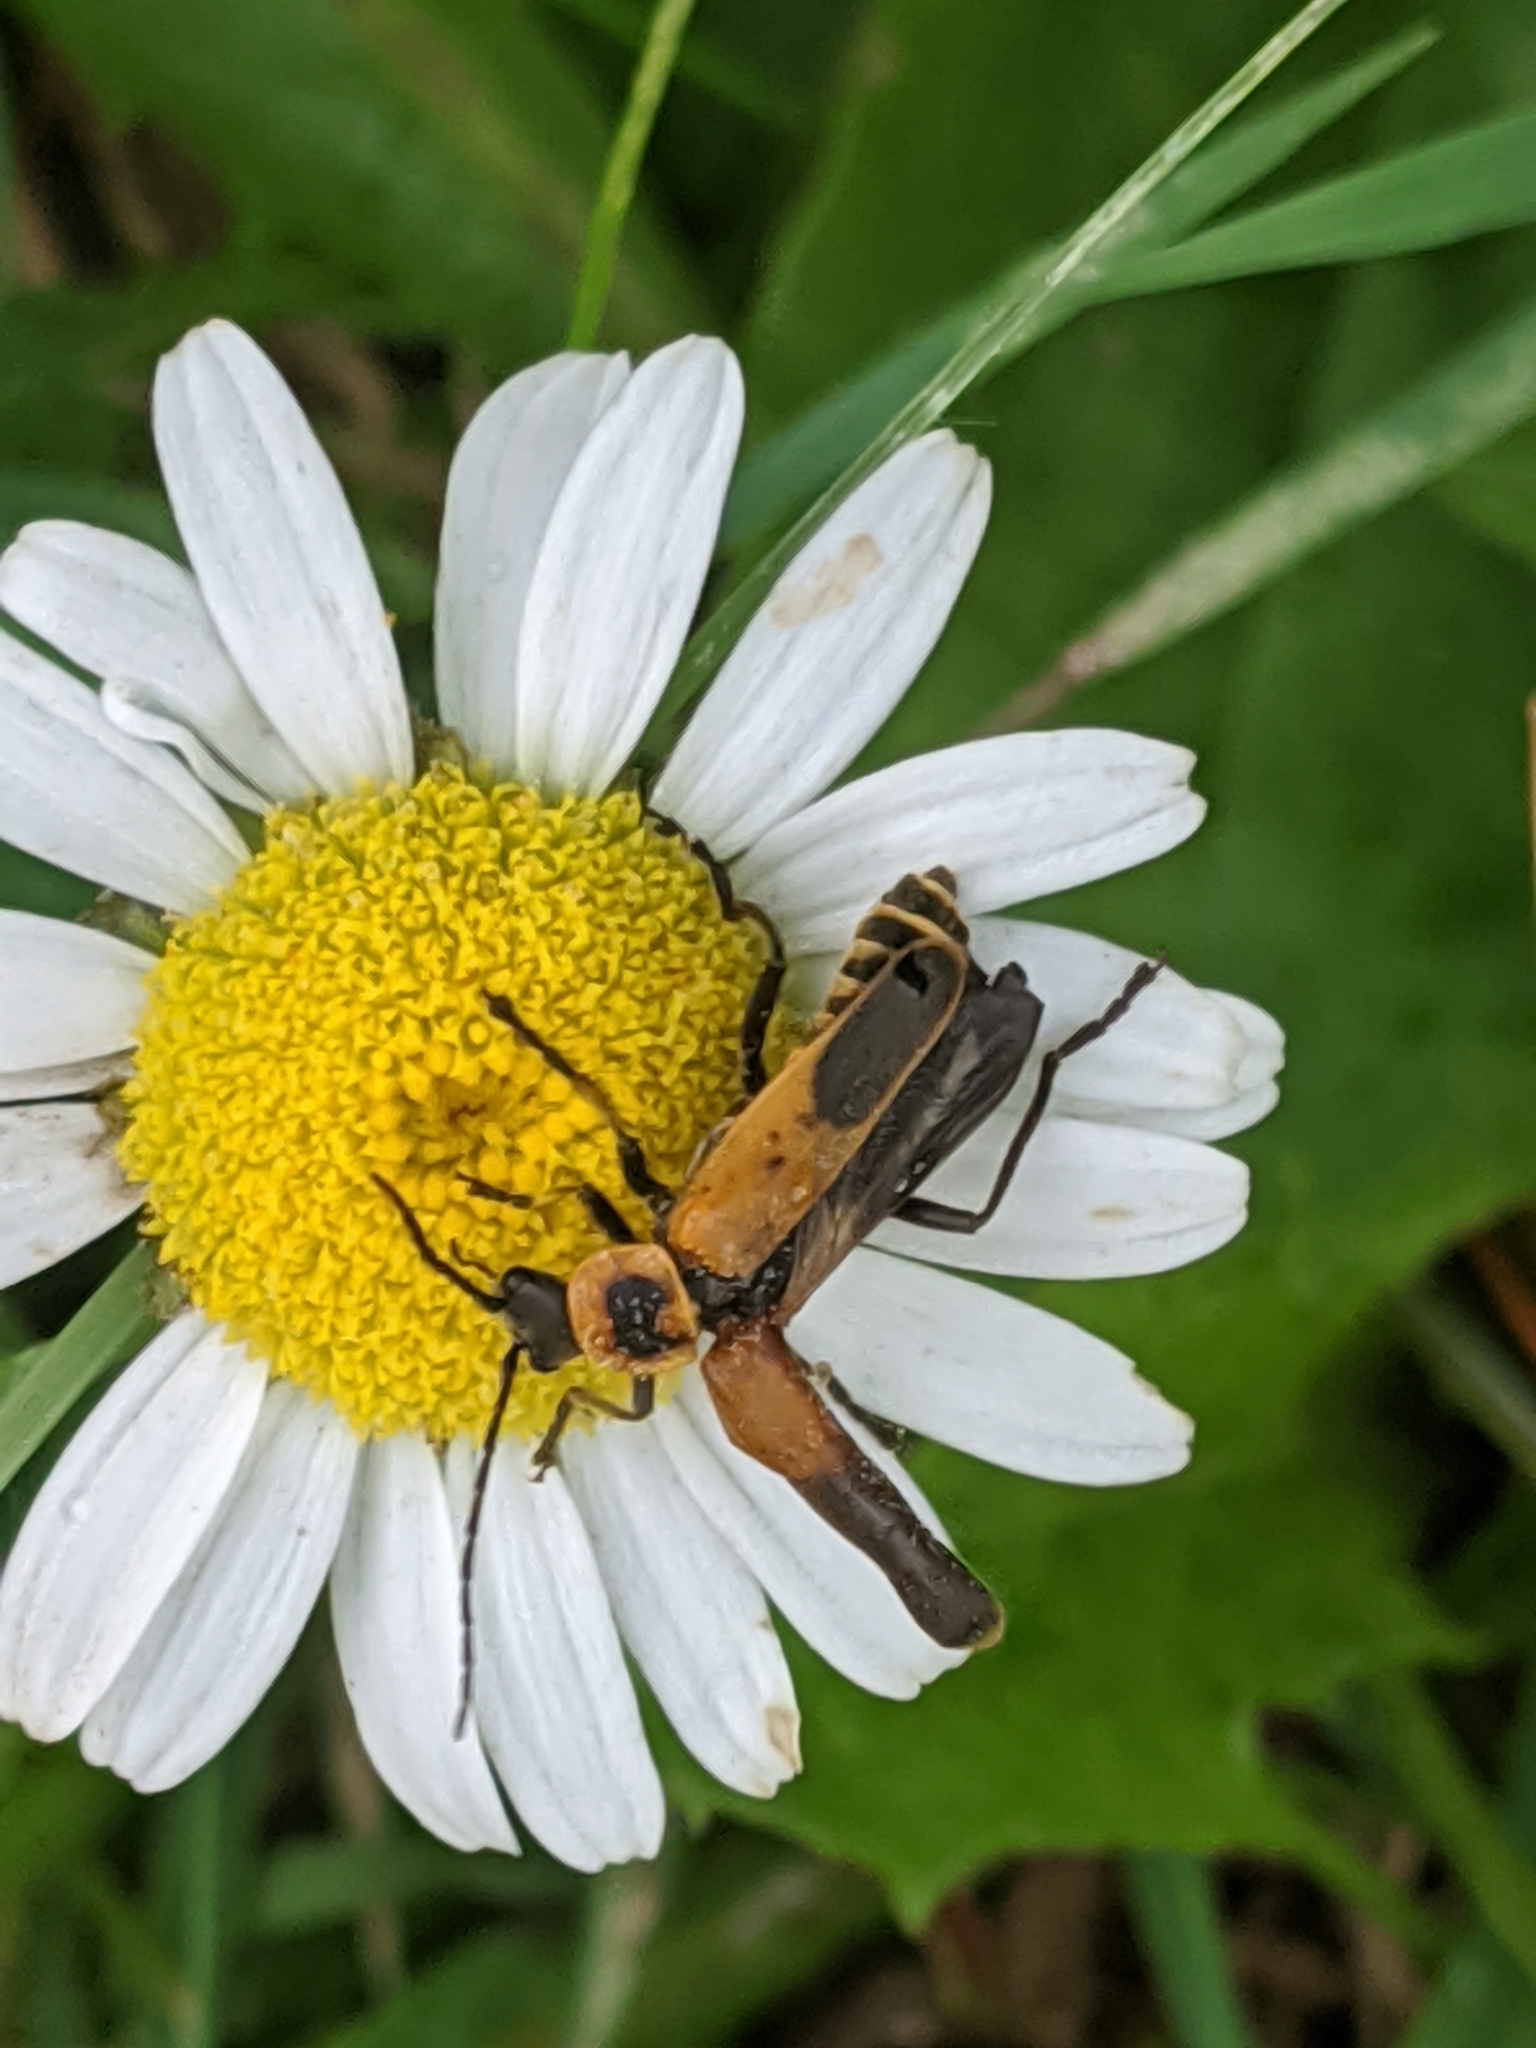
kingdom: Animalia
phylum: Arthropoda
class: Insecta
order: Coleoptera
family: Cantharidae
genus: Chauliognathus
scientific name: Chauliognathus pensylvanicus
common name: Goldenrod soldier beetle
